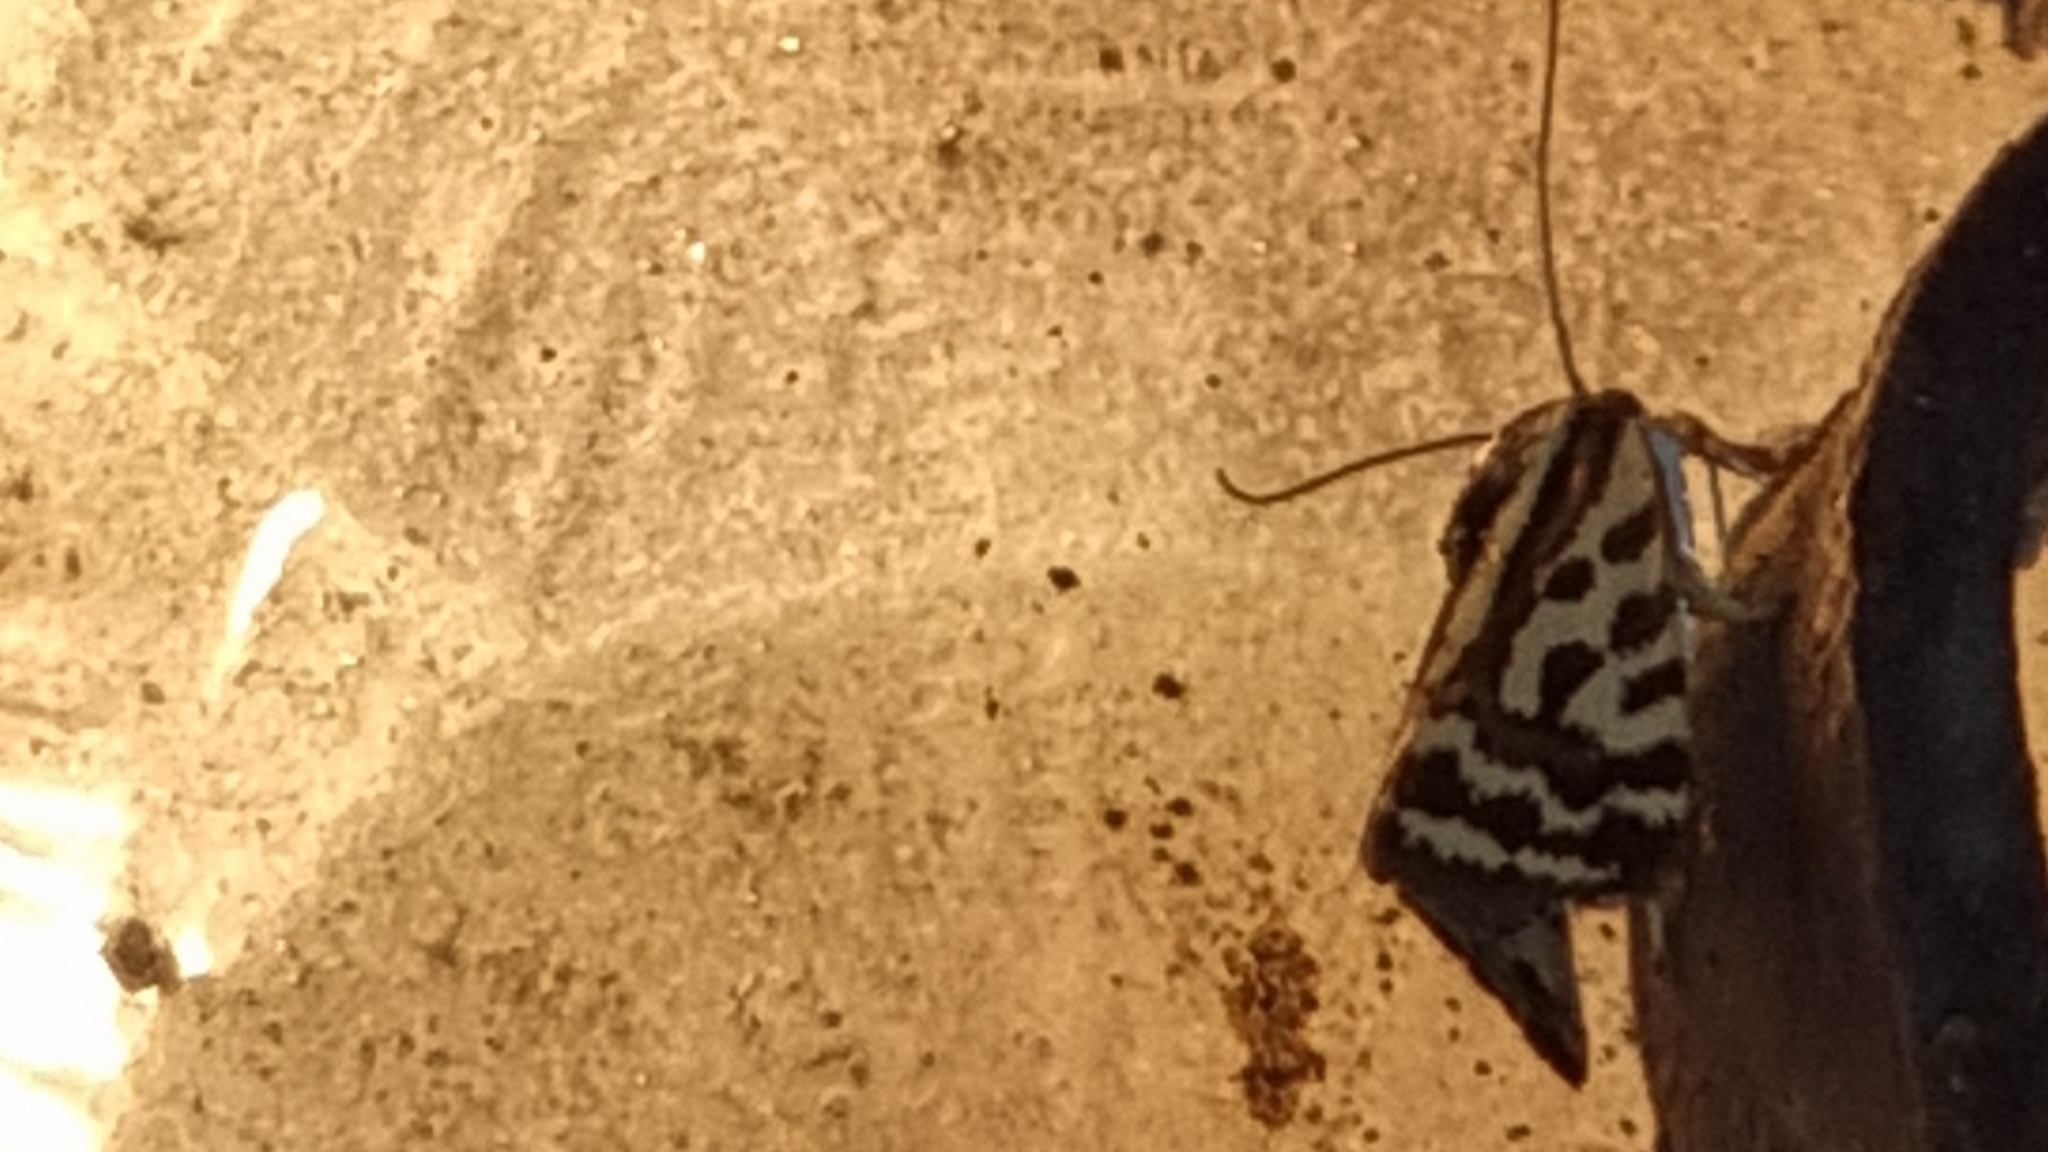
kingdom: Animalia
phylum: Arthropoda
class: Insecta
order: Lepidoptera
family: Noctuidae
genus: Acontia
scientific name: Acontia trabealis
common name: Spotted sulphur
